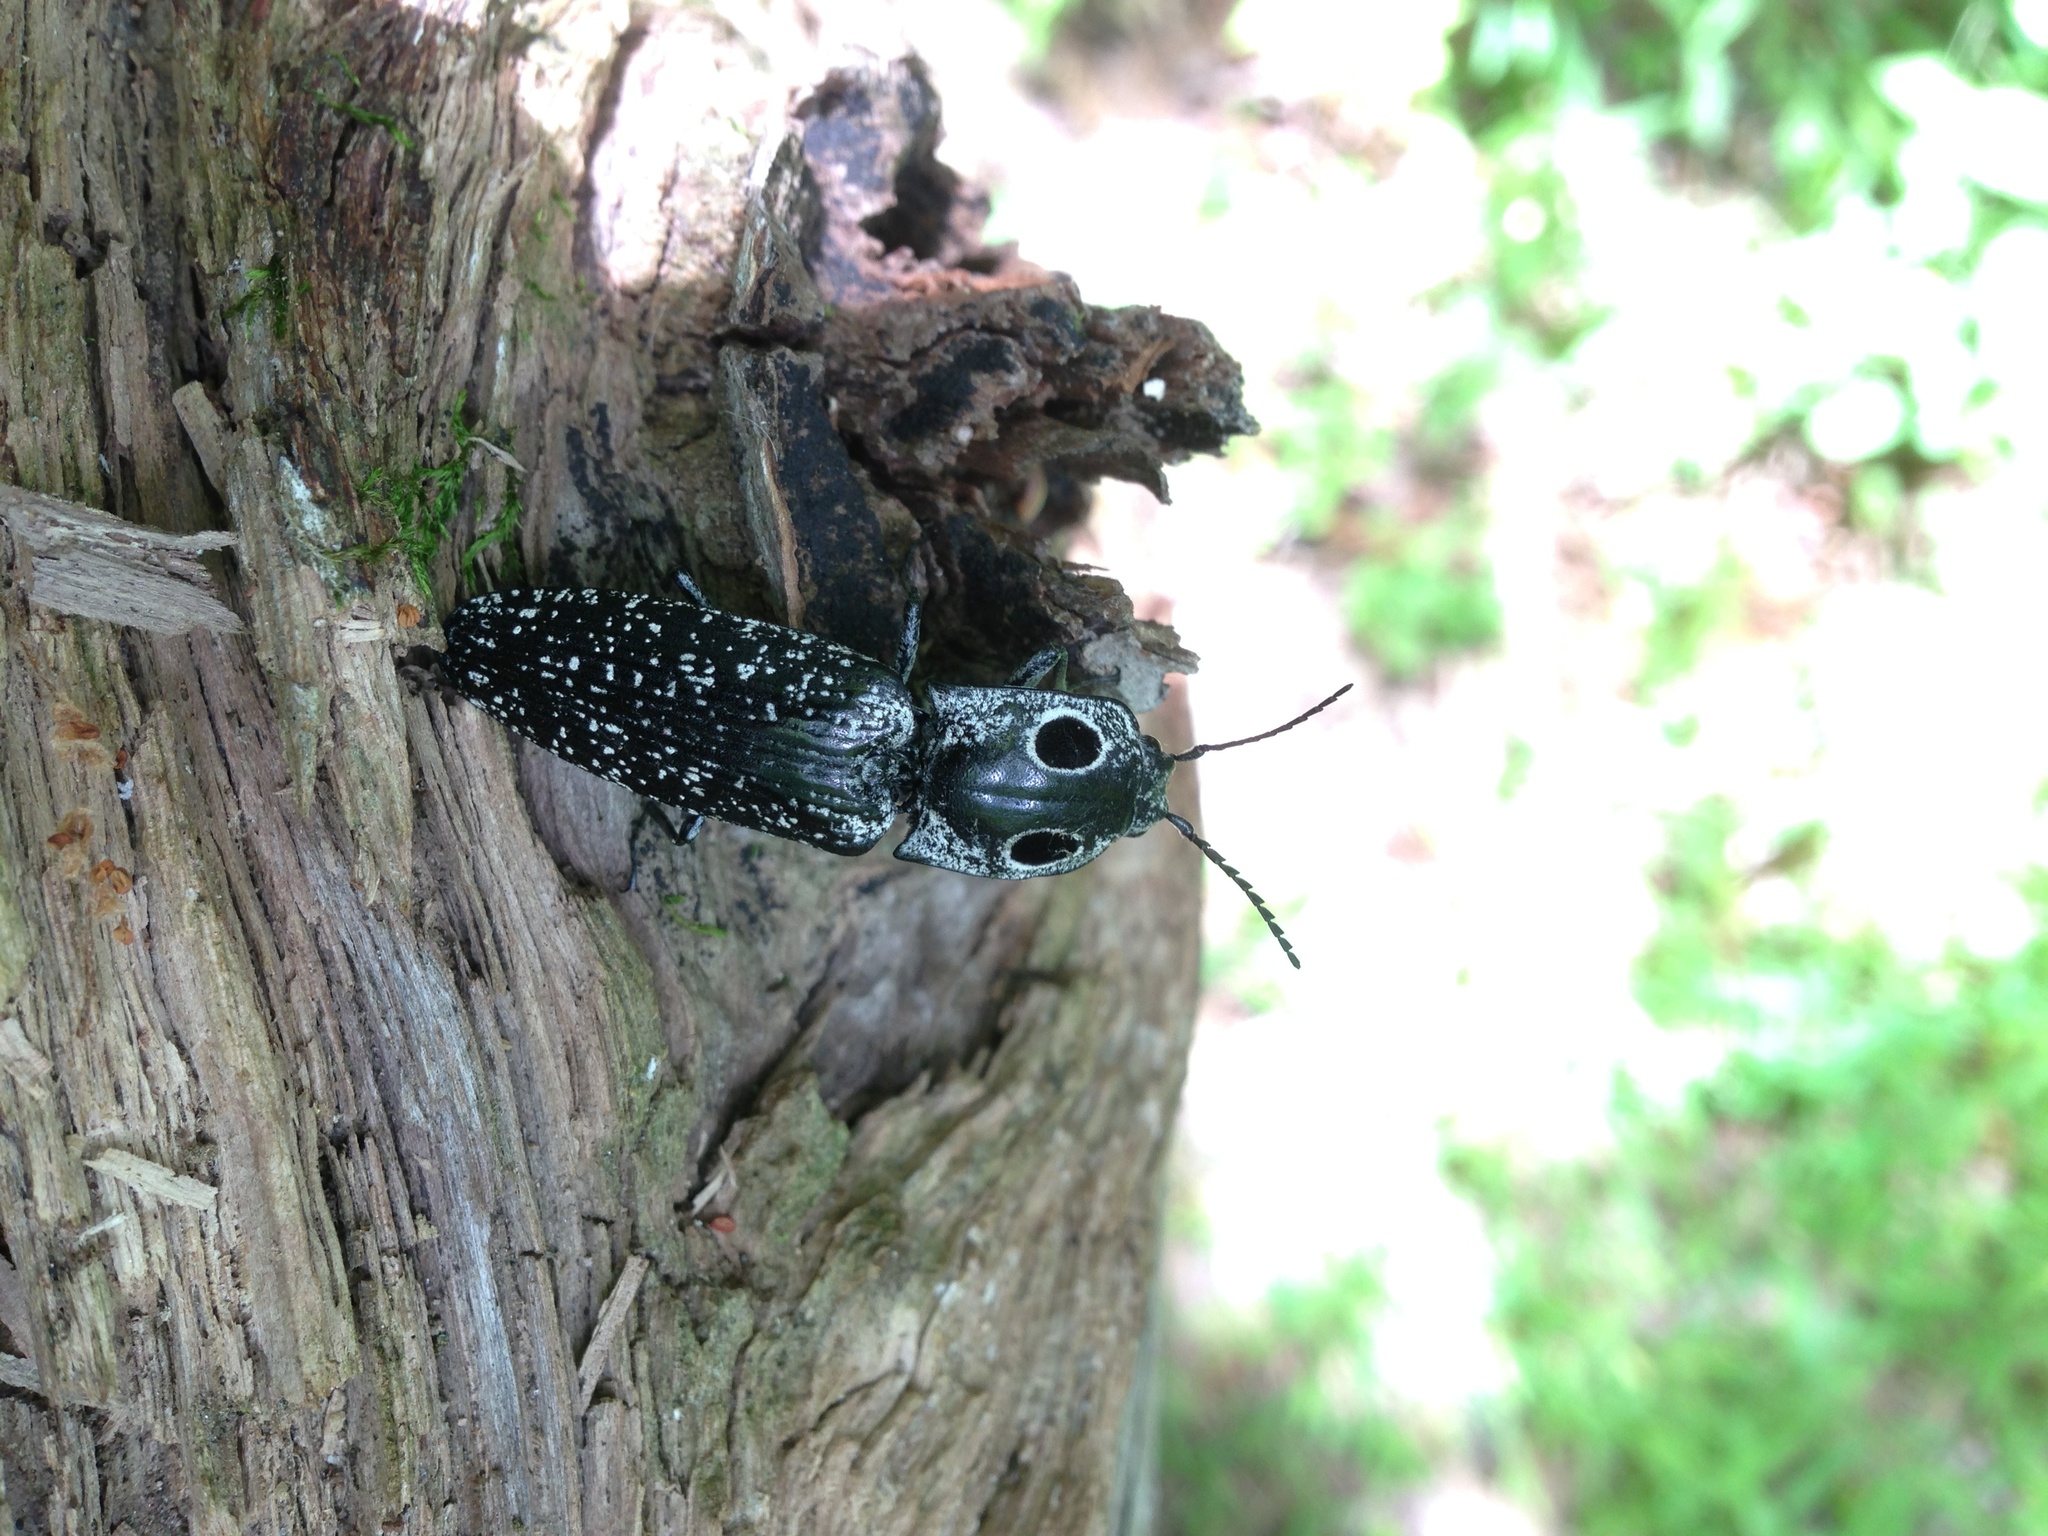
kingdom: Animalia
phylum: Arthropoda
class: Insecta
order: Coleoptera
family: Elateridae
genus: Alaus
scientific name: Alaus oculatus
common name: Eastern eyed click beetle
